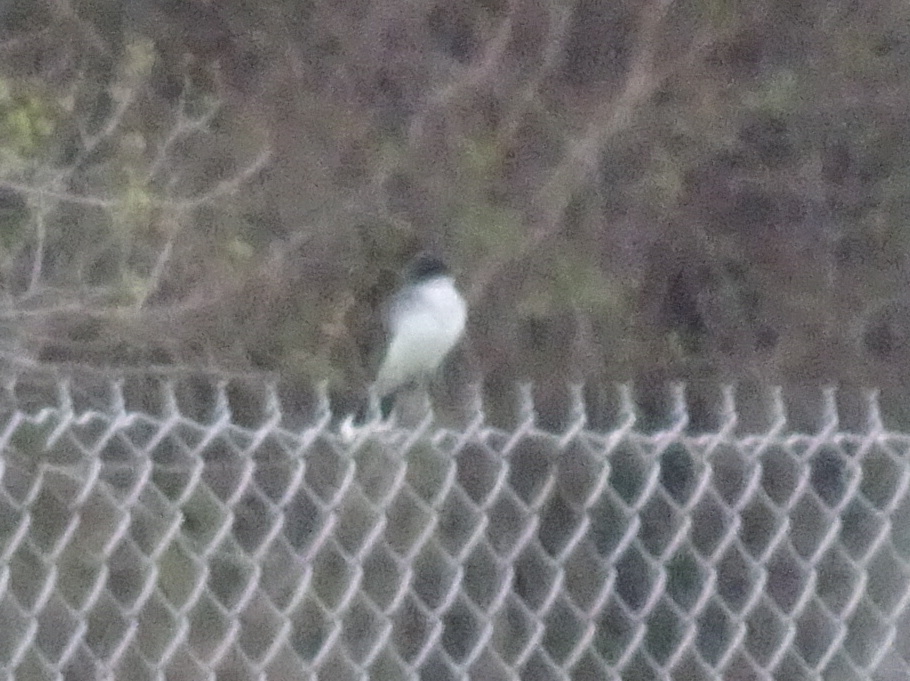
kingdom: Animalia
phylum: Chordata
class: Aves
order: Passeriformes
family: Tyrannidae
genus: Tyrannus
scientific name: Tyrannus tyrannus
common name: Eastern kingbird
